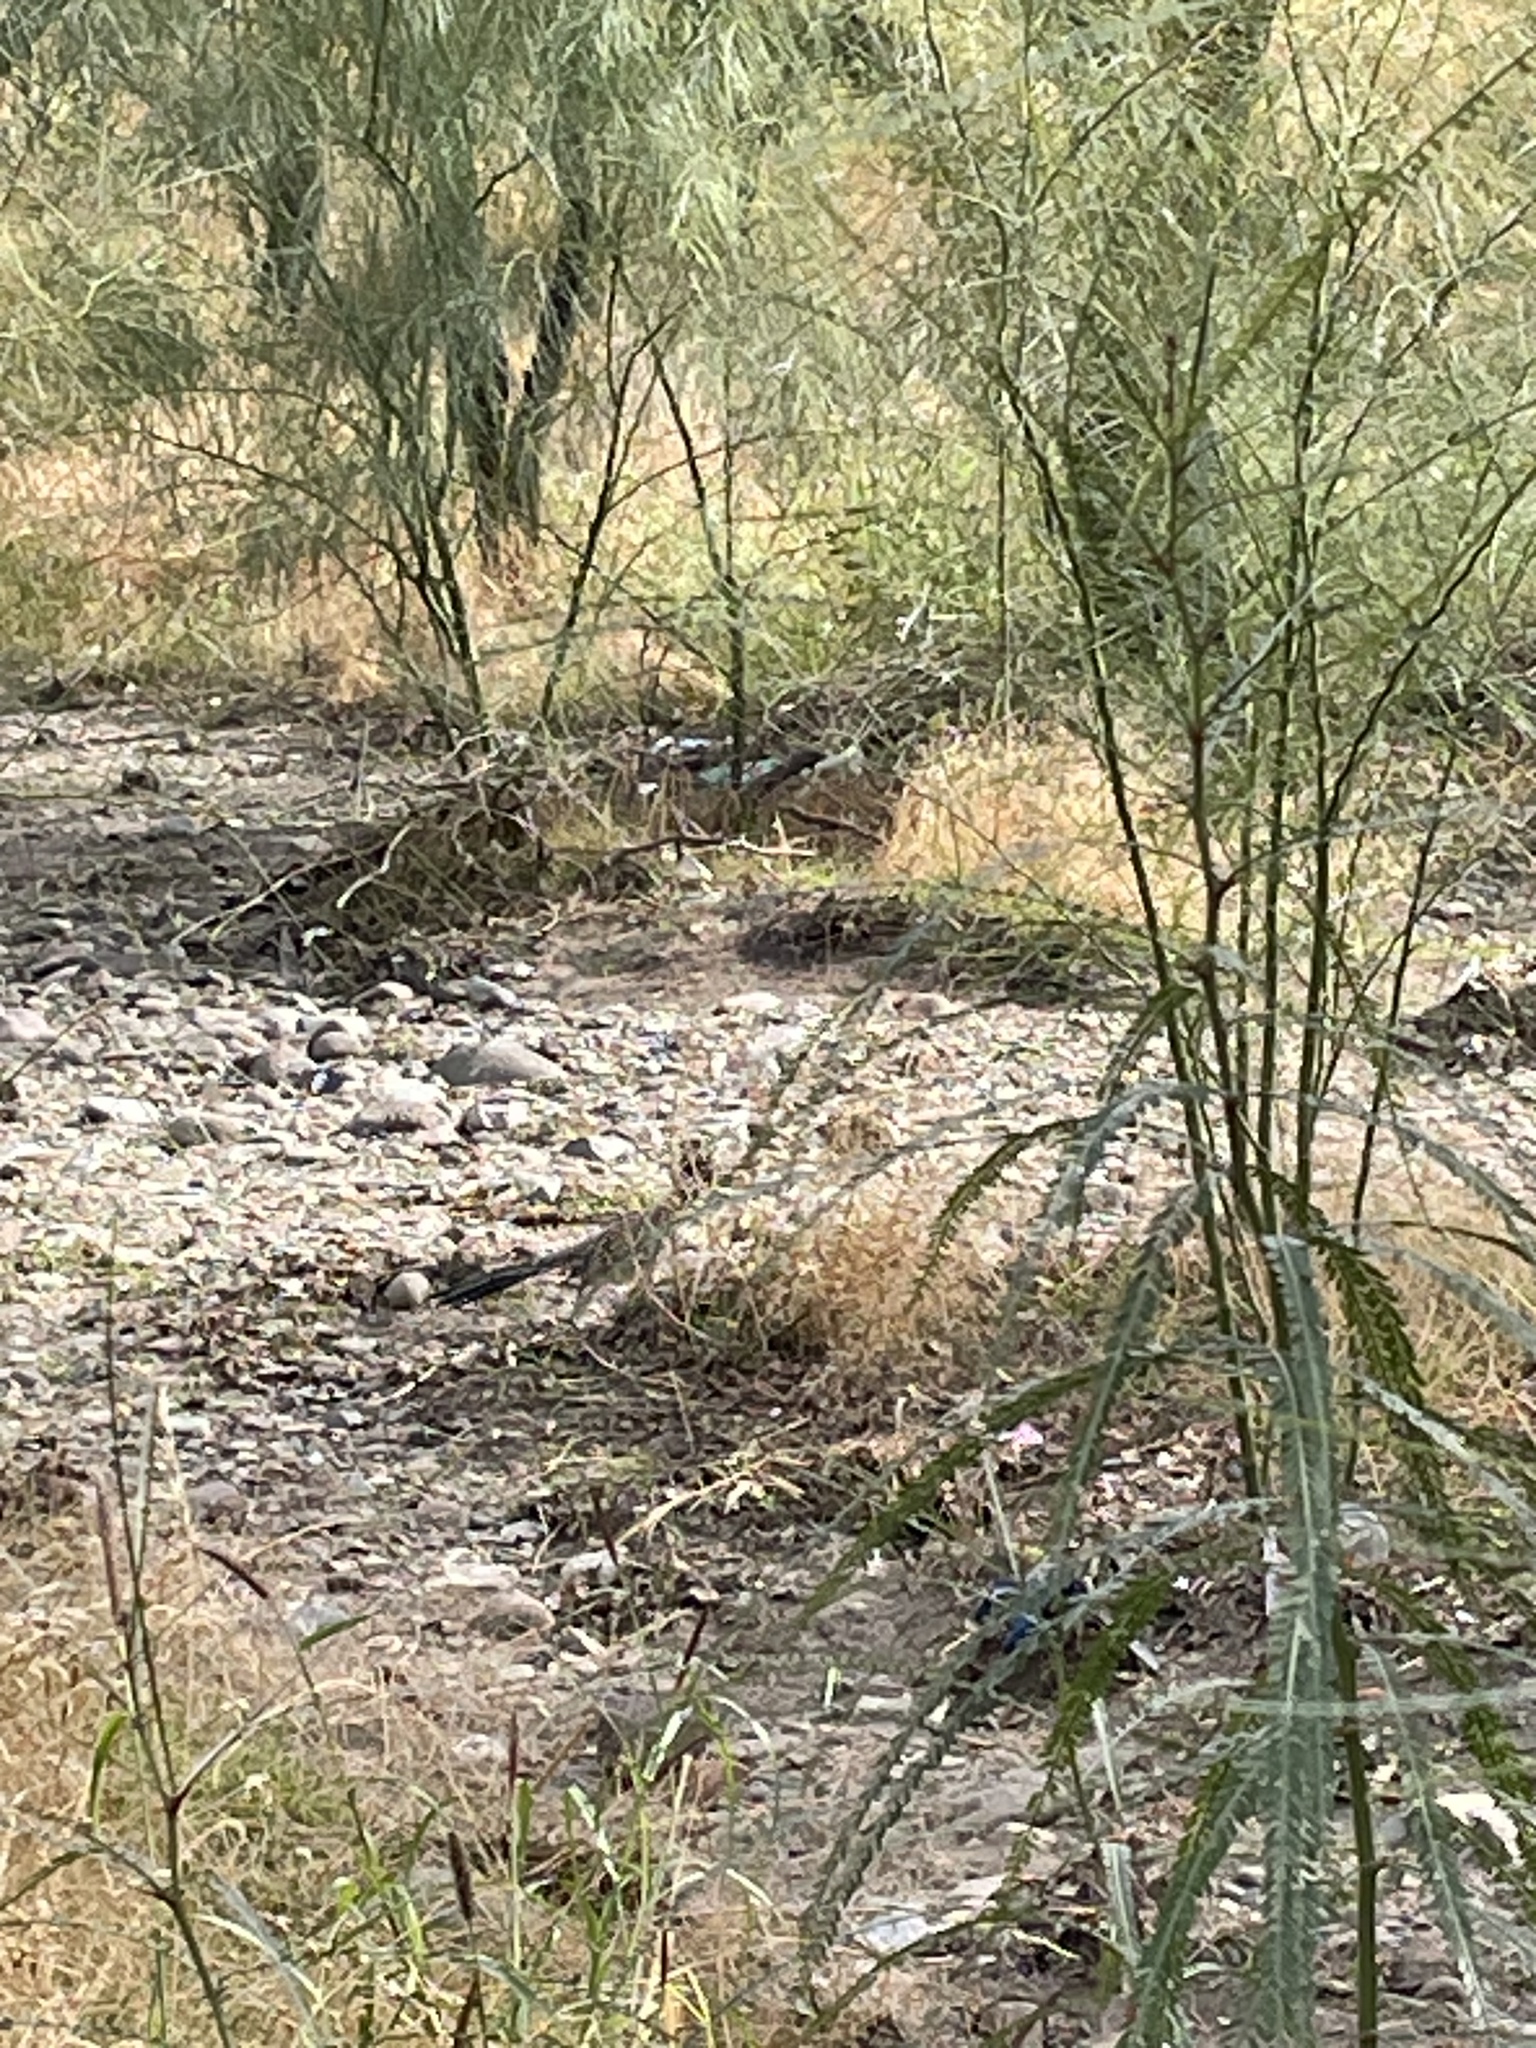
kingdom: Animalia
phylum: Chordata
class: Aves
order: Cuculiformes
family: Cuculidae
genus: Geococcyx
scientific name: Geococcyx californianus
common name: Greater roadrunner
